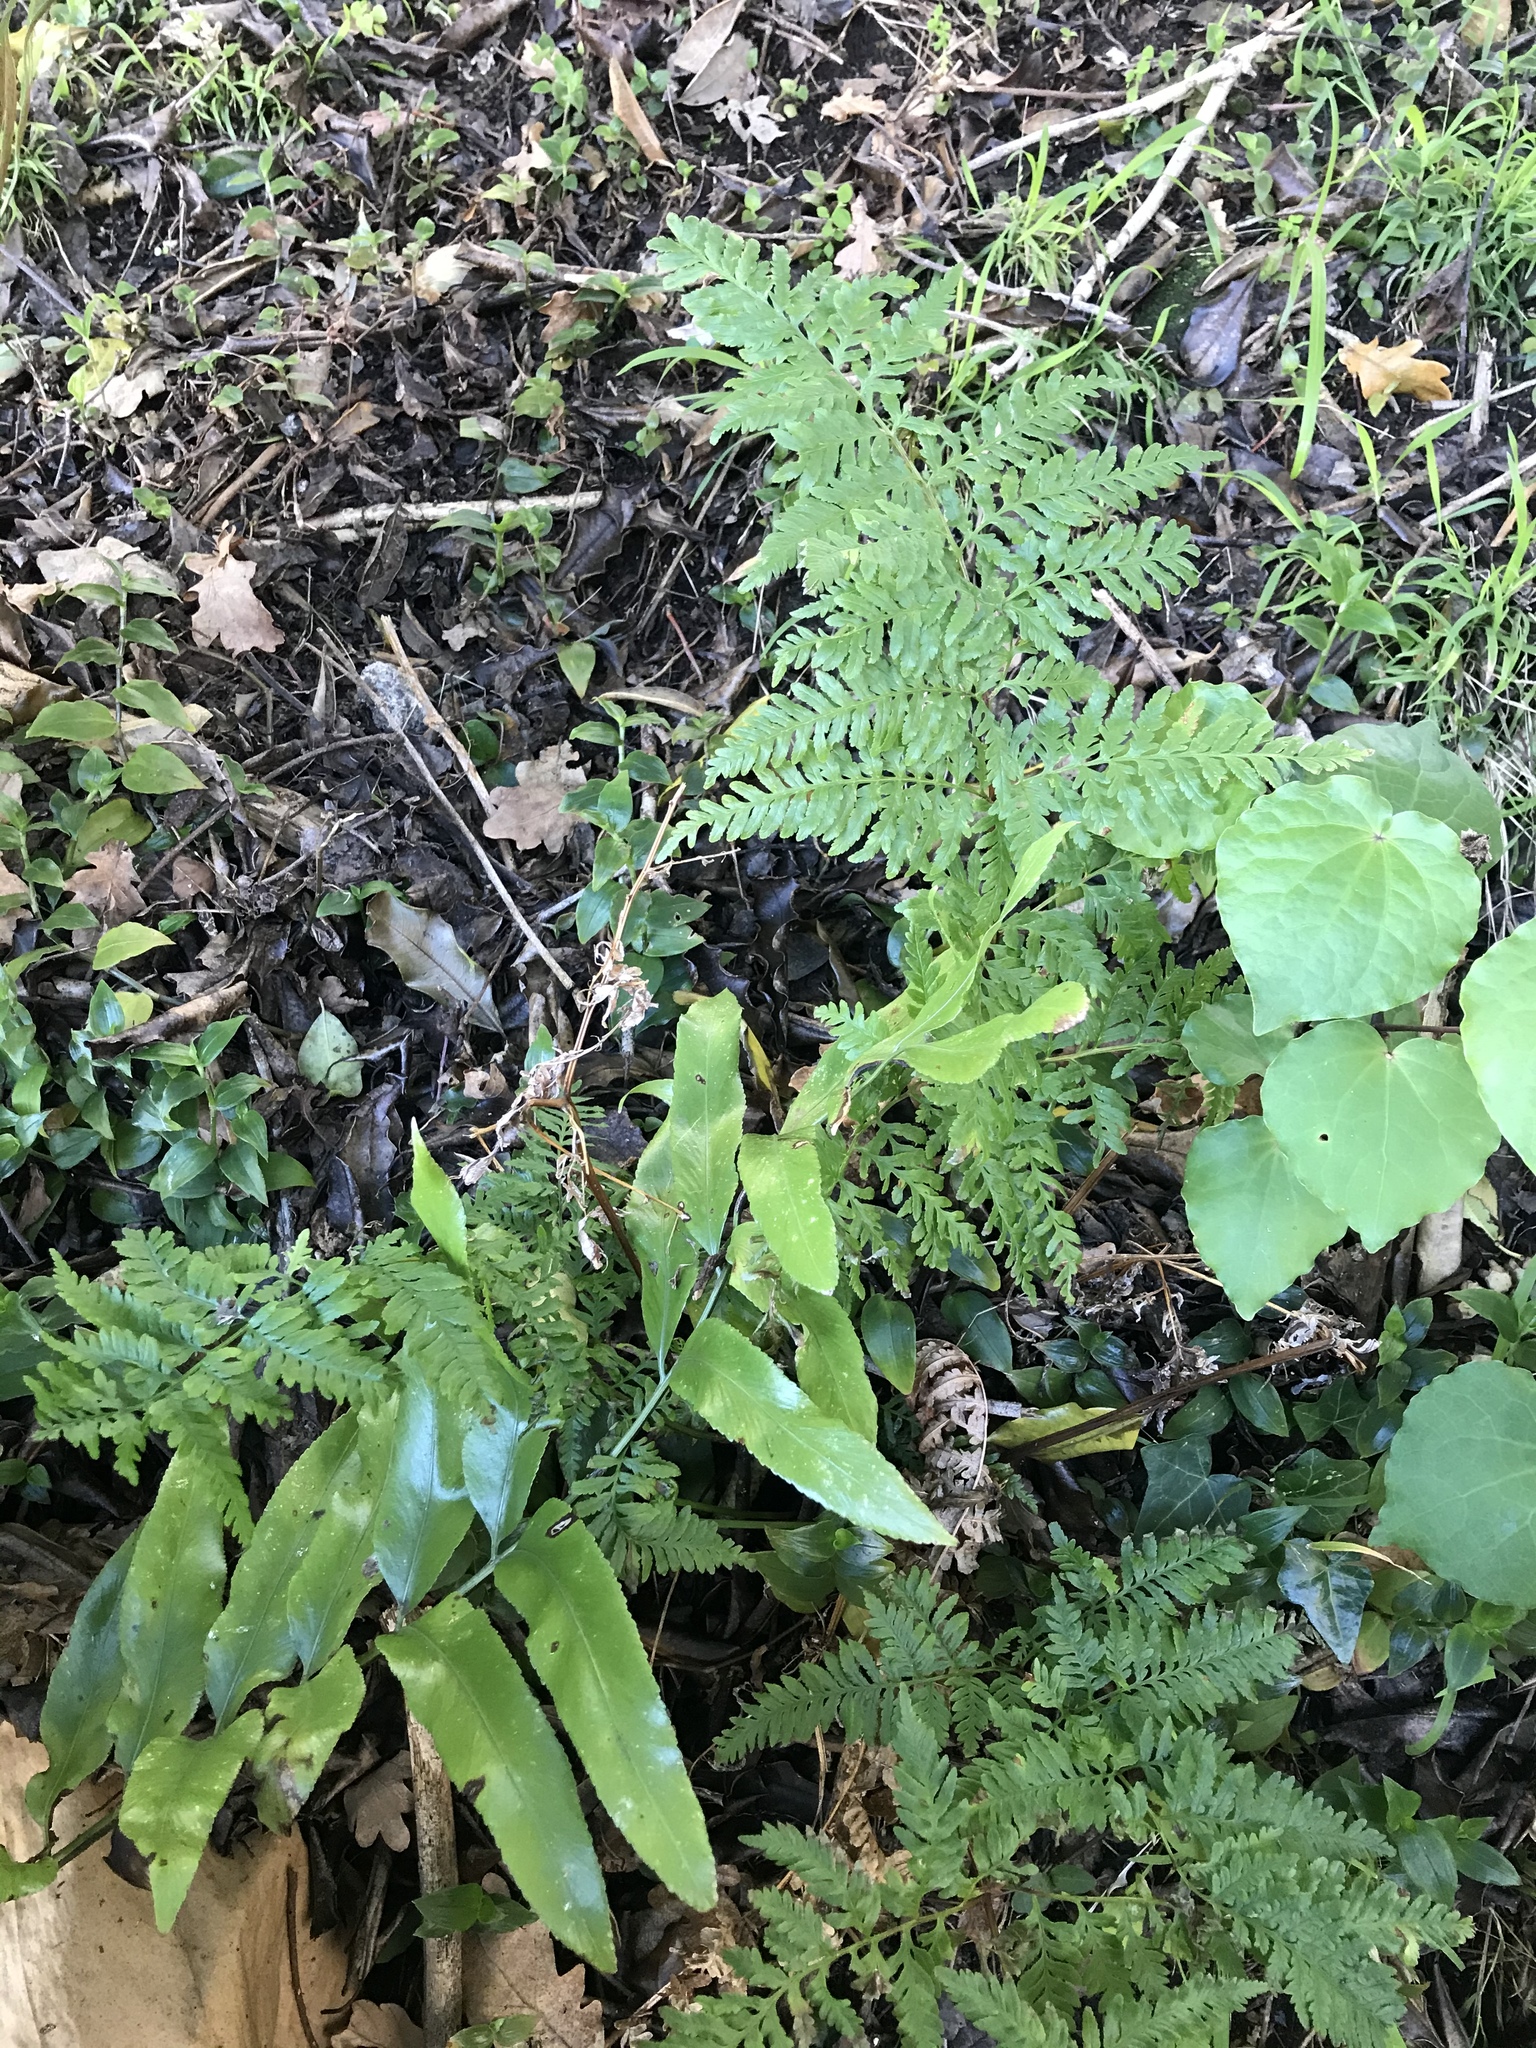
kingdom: Plantae
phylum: Tracheophyta
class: Polypodiopsida
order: Polypodiales
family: Pteridaceae
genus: Pteris
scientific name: Pteris tremula
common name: Australian brake
